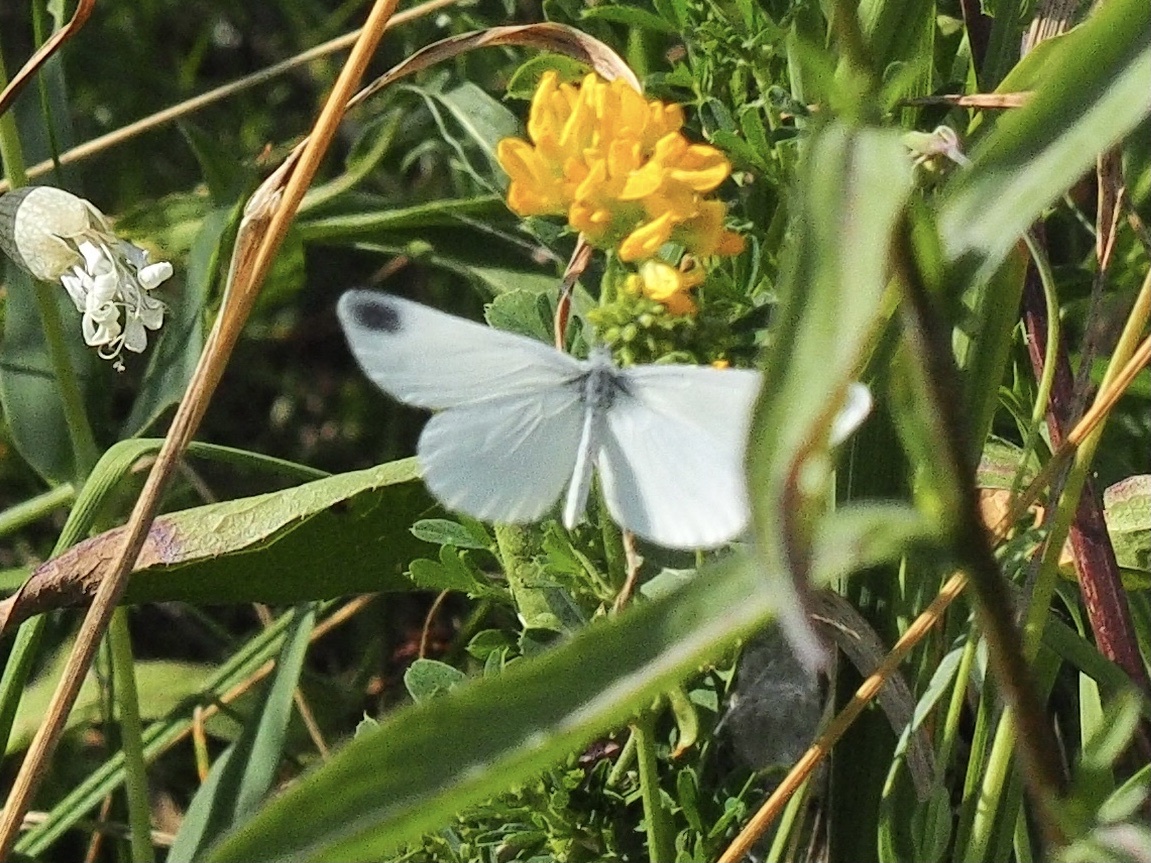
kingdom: Animalia
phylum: Arthropoda
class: Insecta
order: Lepidoptera
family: Pieridae
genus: Leptidea
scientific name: Leptidea
